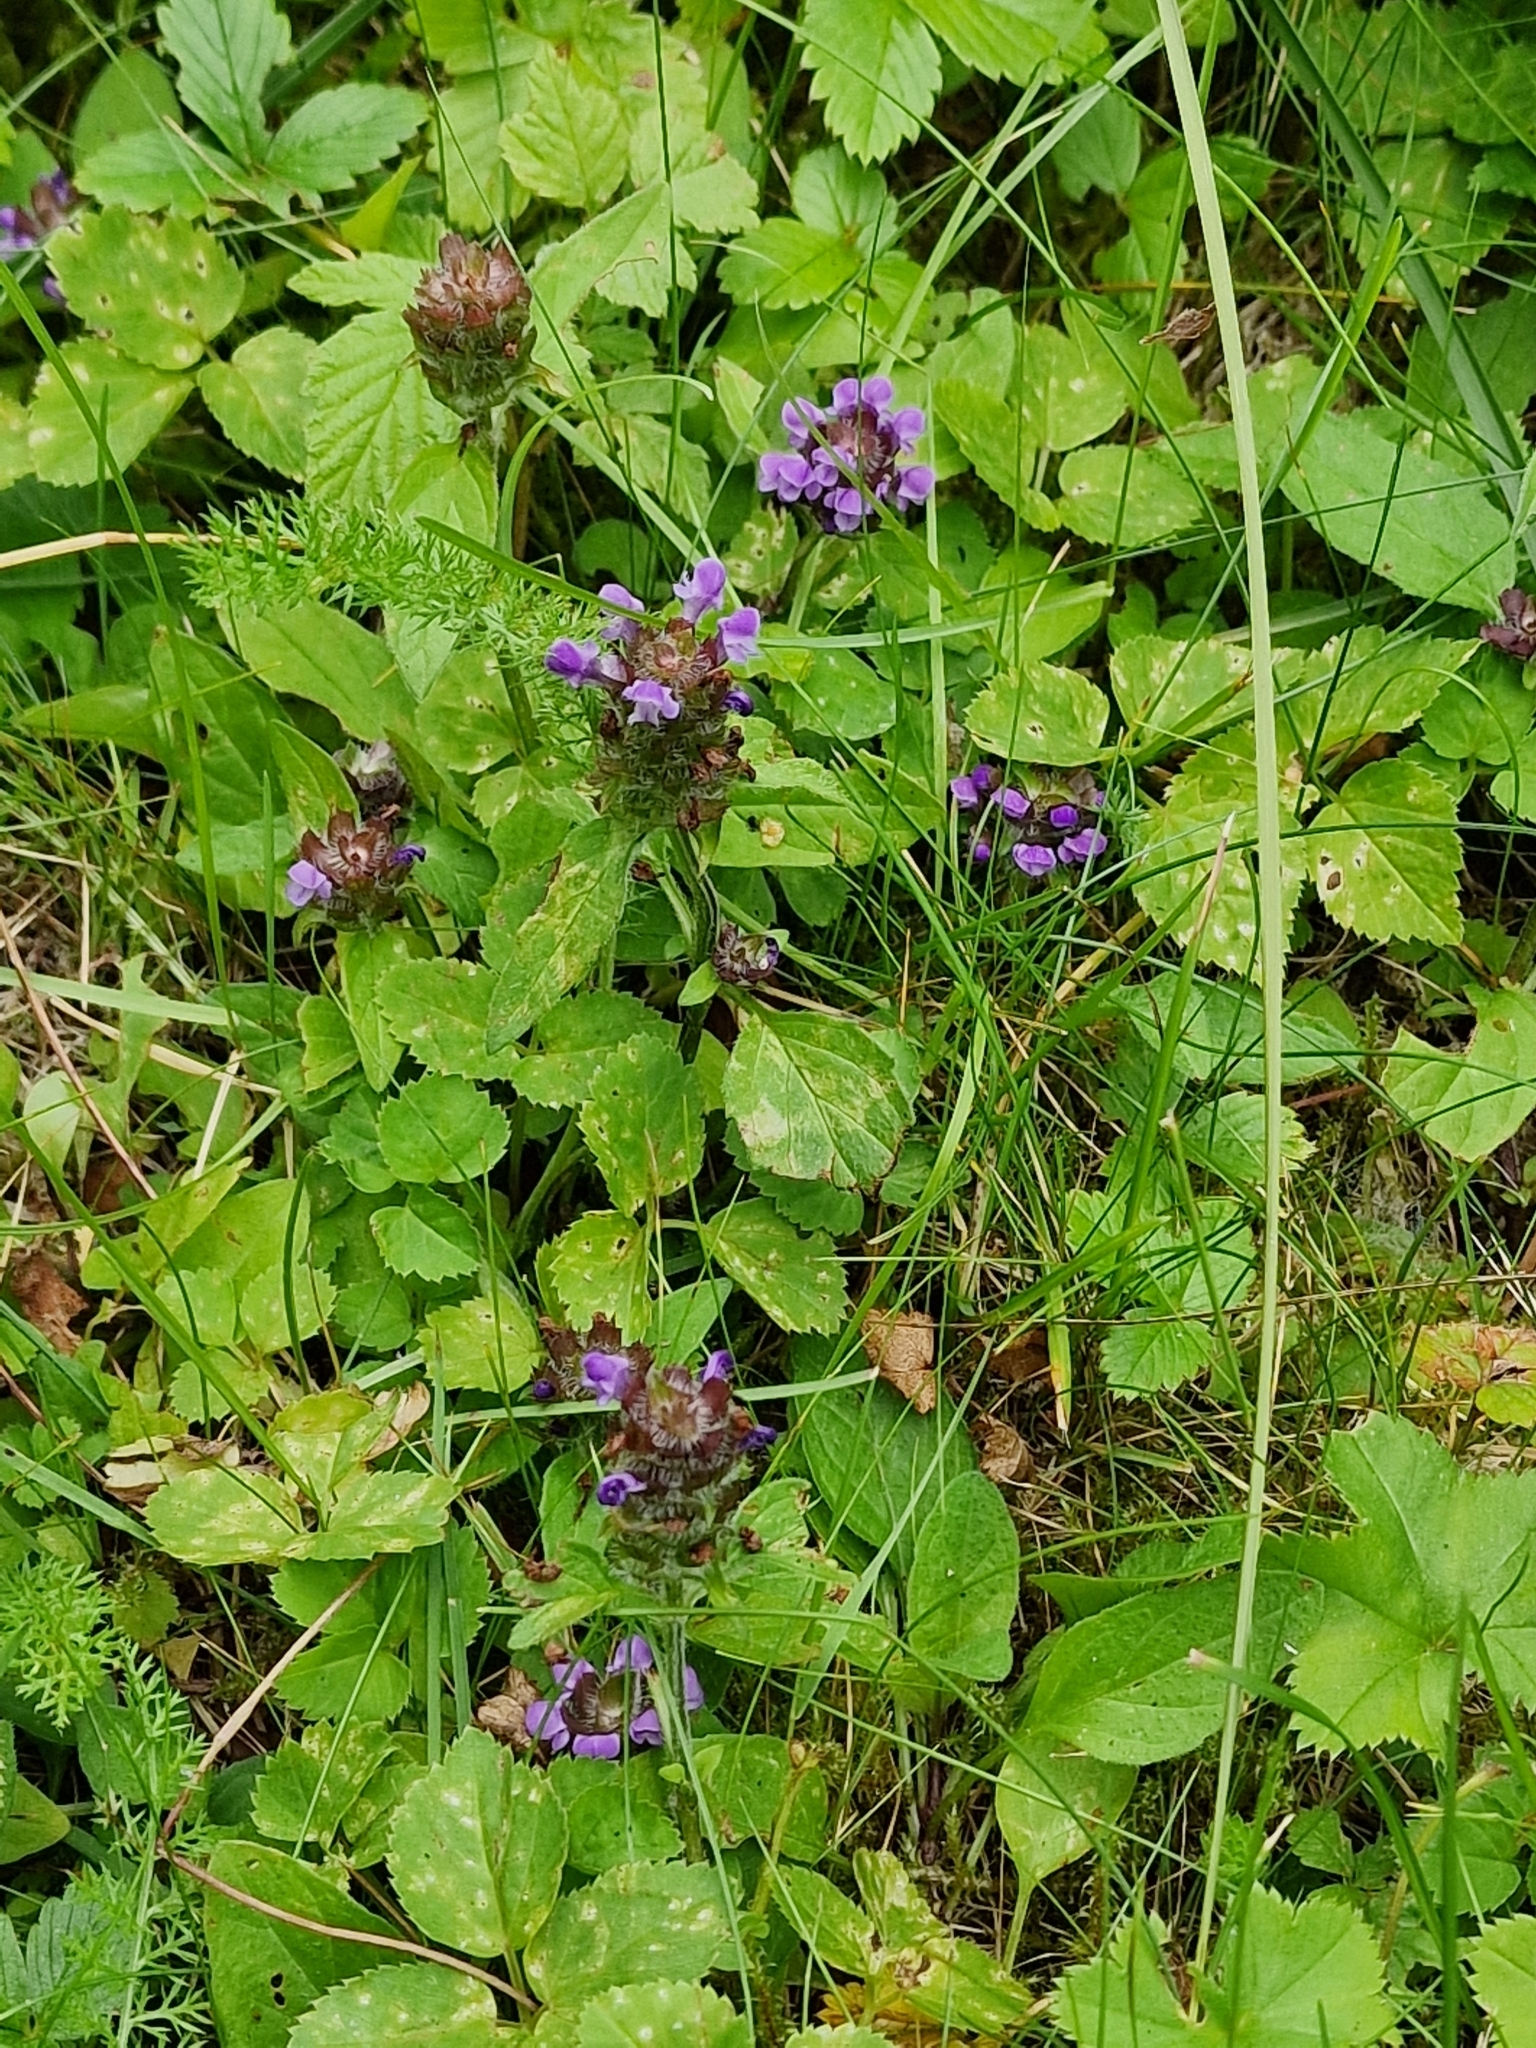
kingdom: Plantae
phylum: Tracheophyta
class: Magnoliopsida
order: Lamiales
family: Lamiaceae
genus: Prunella
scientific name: Prunella vulgaris
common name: Heal-all
